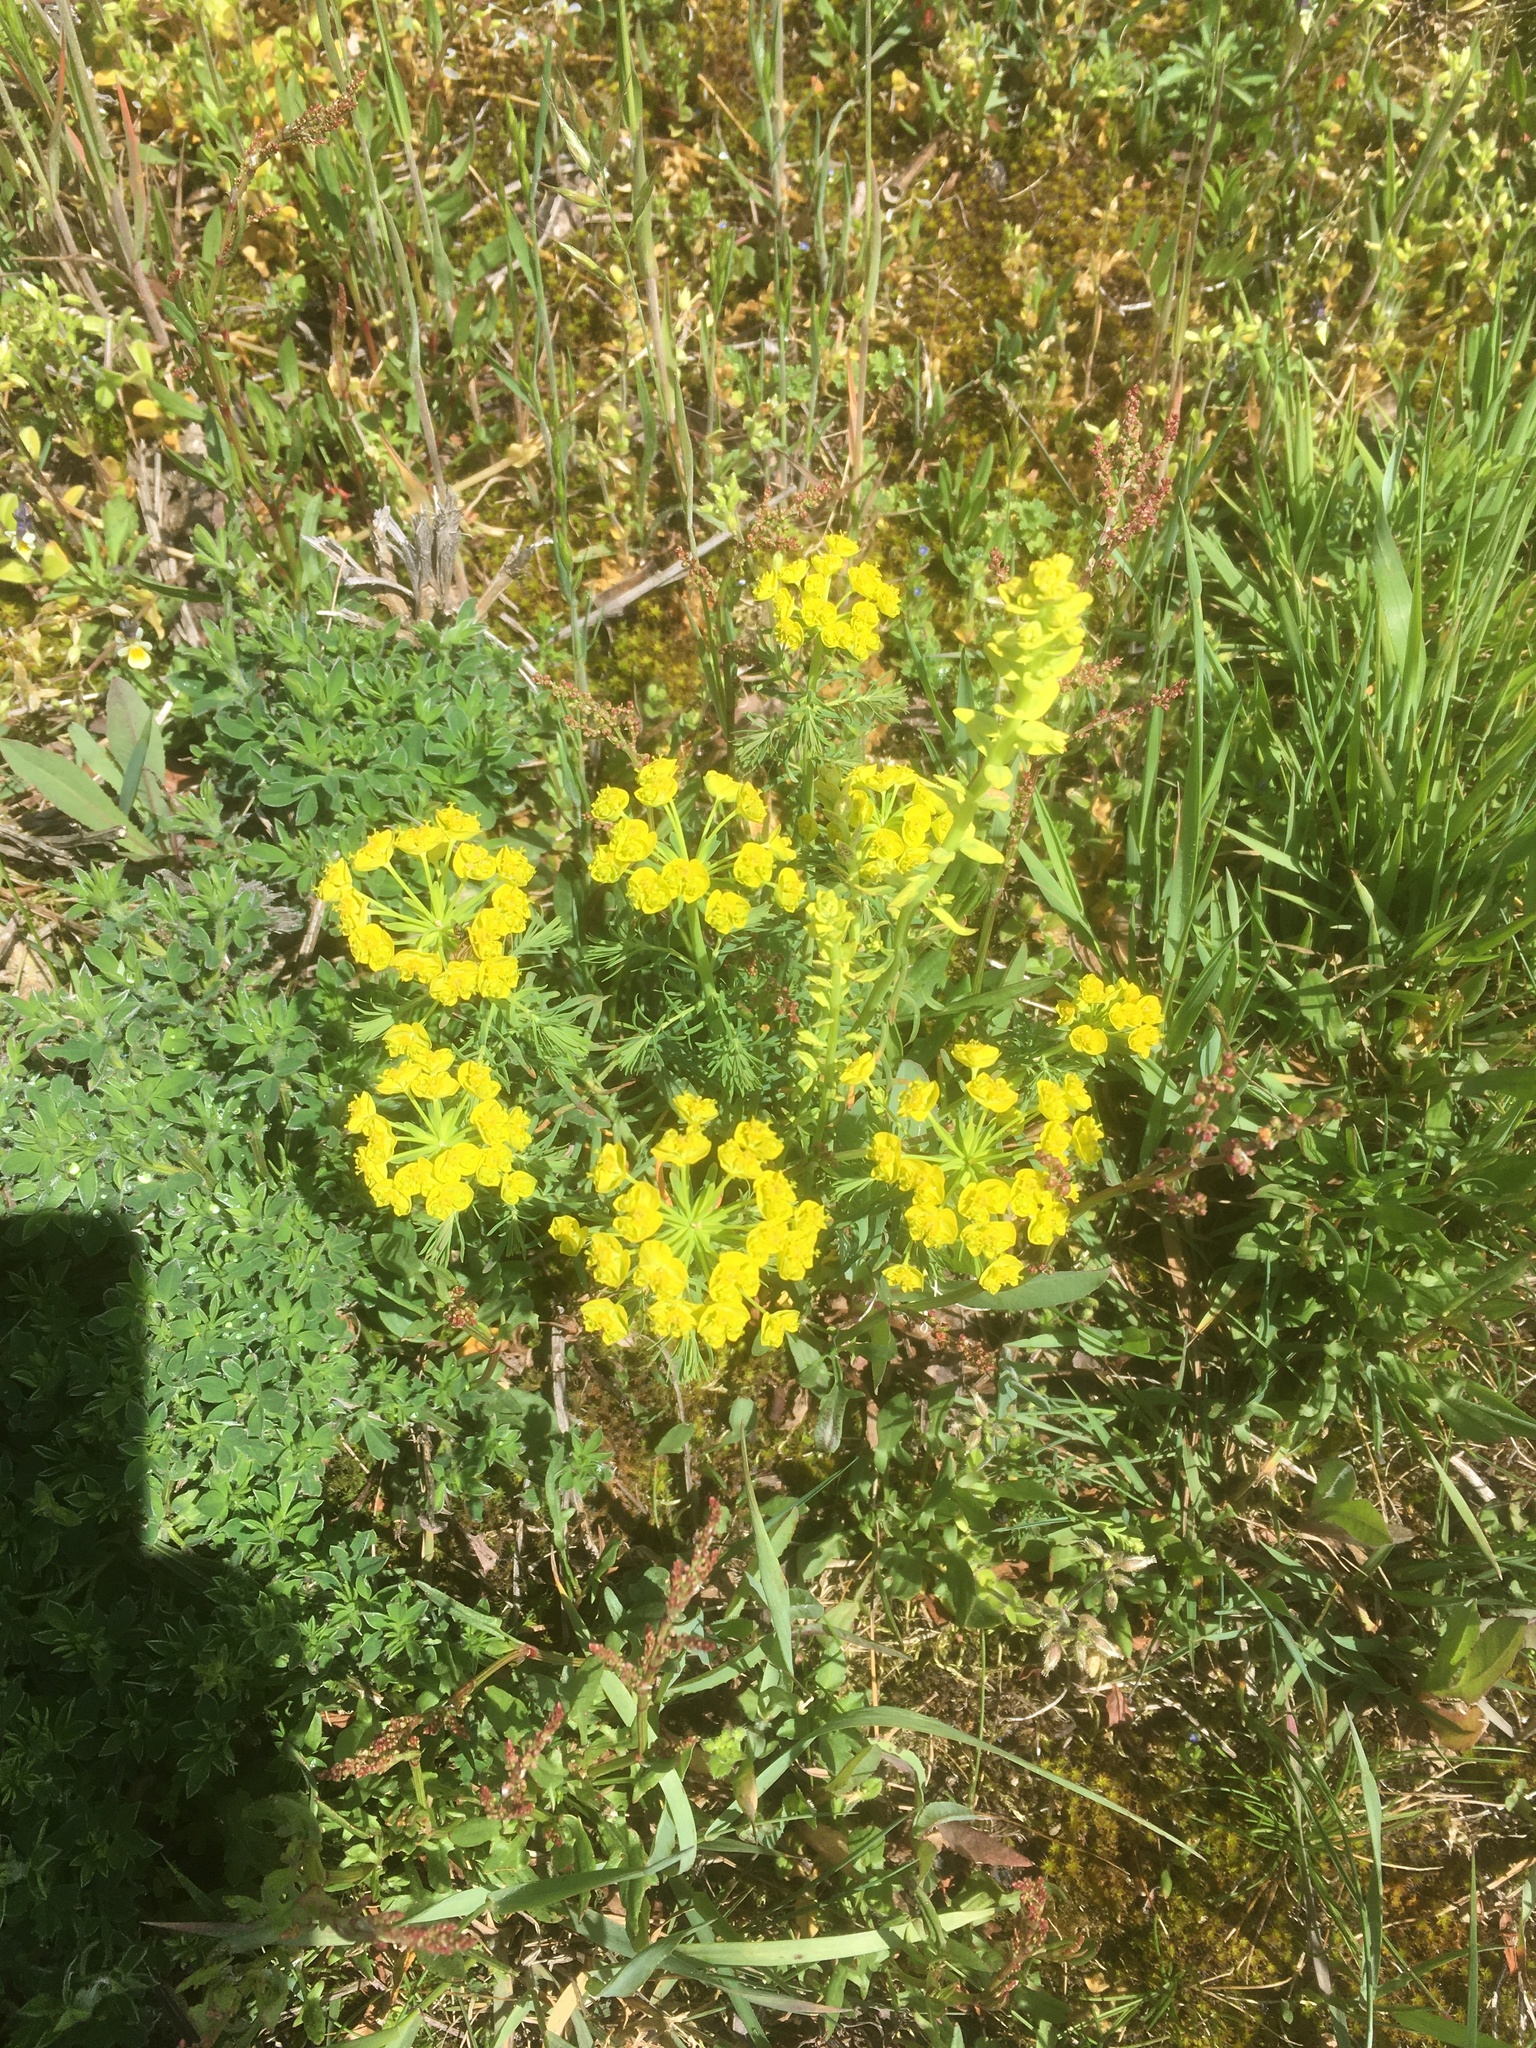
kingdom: Plantae
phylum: Tracheophyta
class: Magnoliopsida
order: Malpighiales
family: Euphorbiaceae
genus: Euphorbia
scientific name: Euphorbia cyparissias
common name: Cypress spurge
